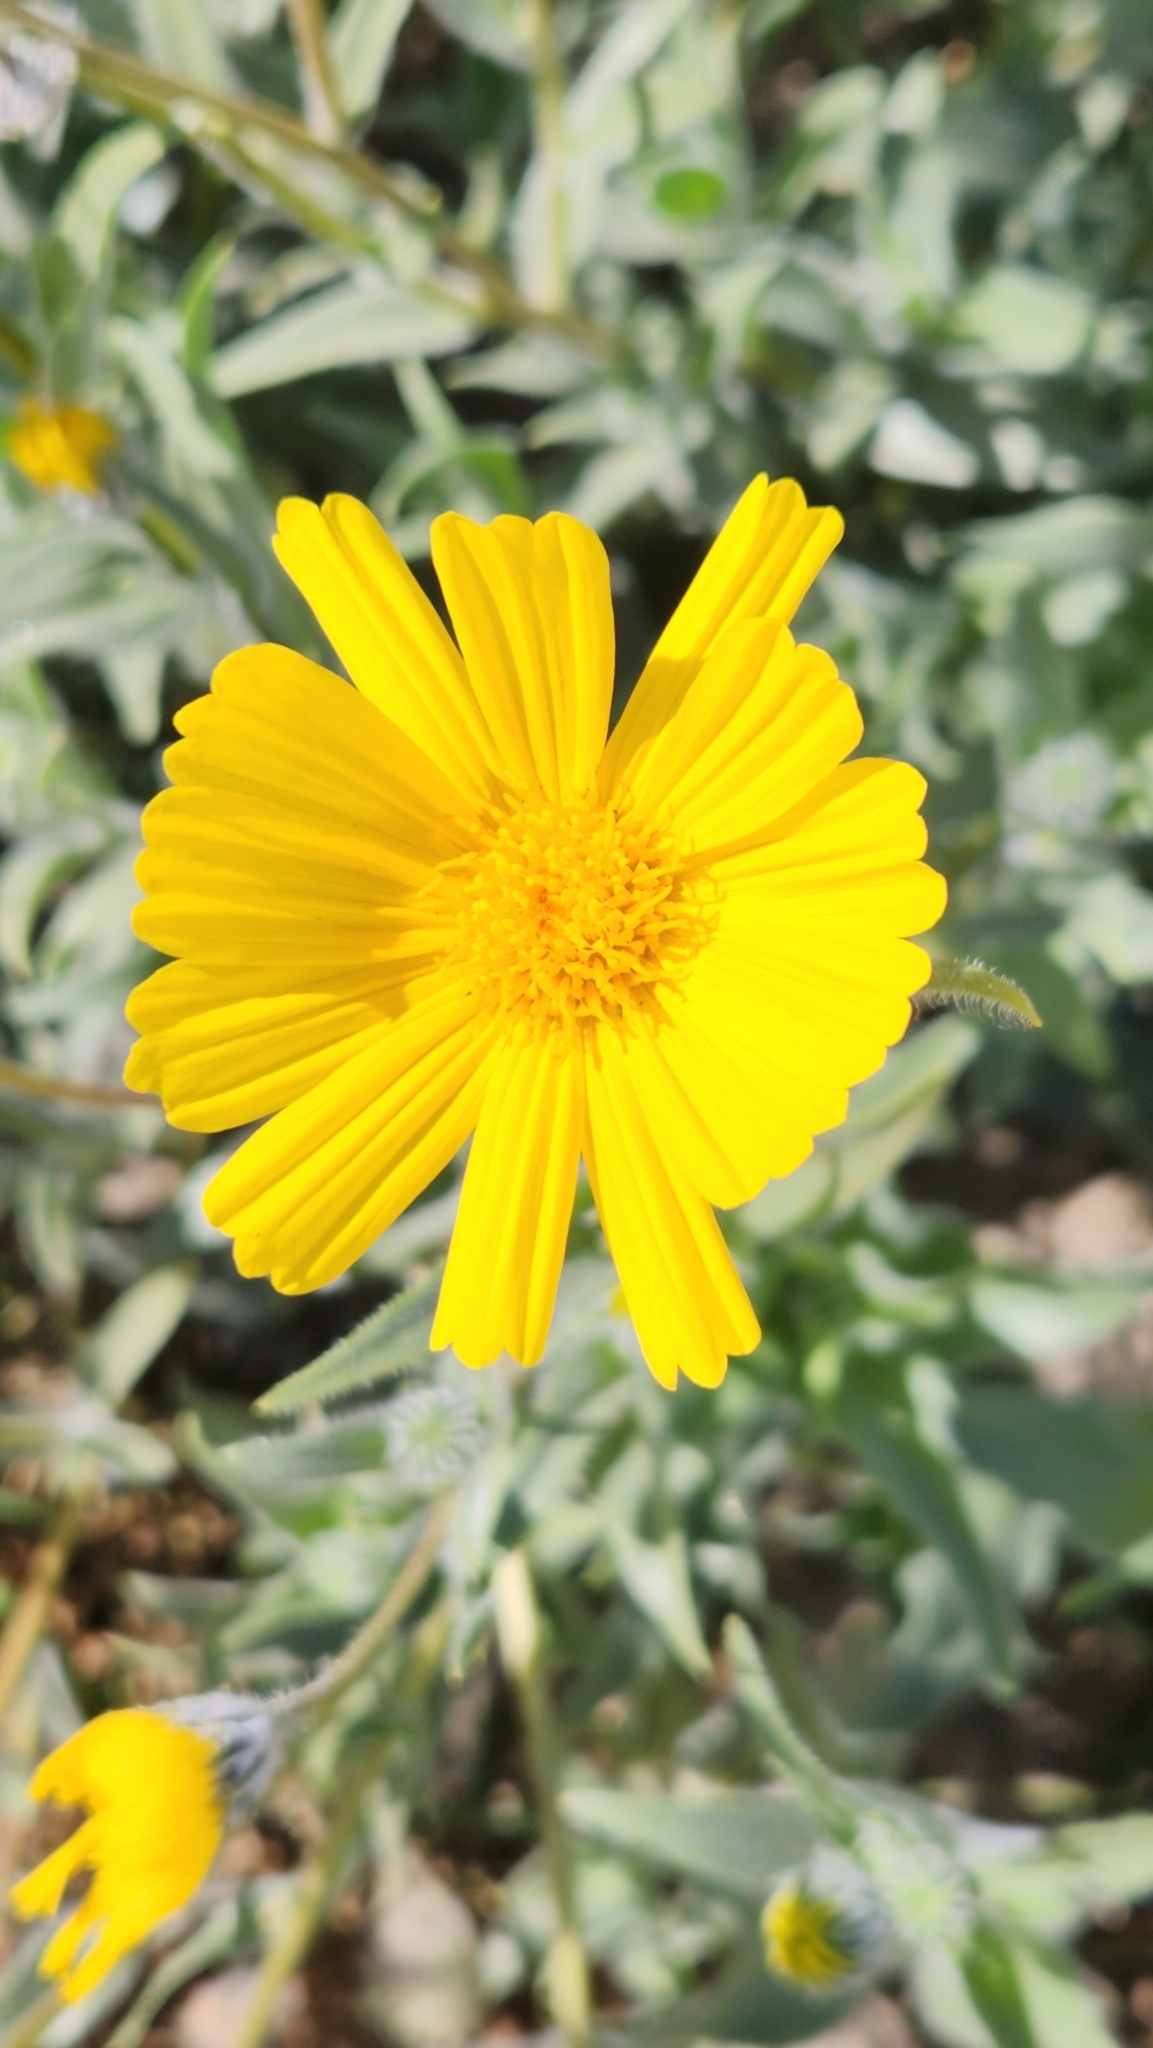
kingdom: Plantae
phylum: Tracheophyta
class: Magnoliopsida
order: Asterales
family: Asteraceae
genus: Geraea
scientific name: Geraea canescens
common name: Desert-gold
